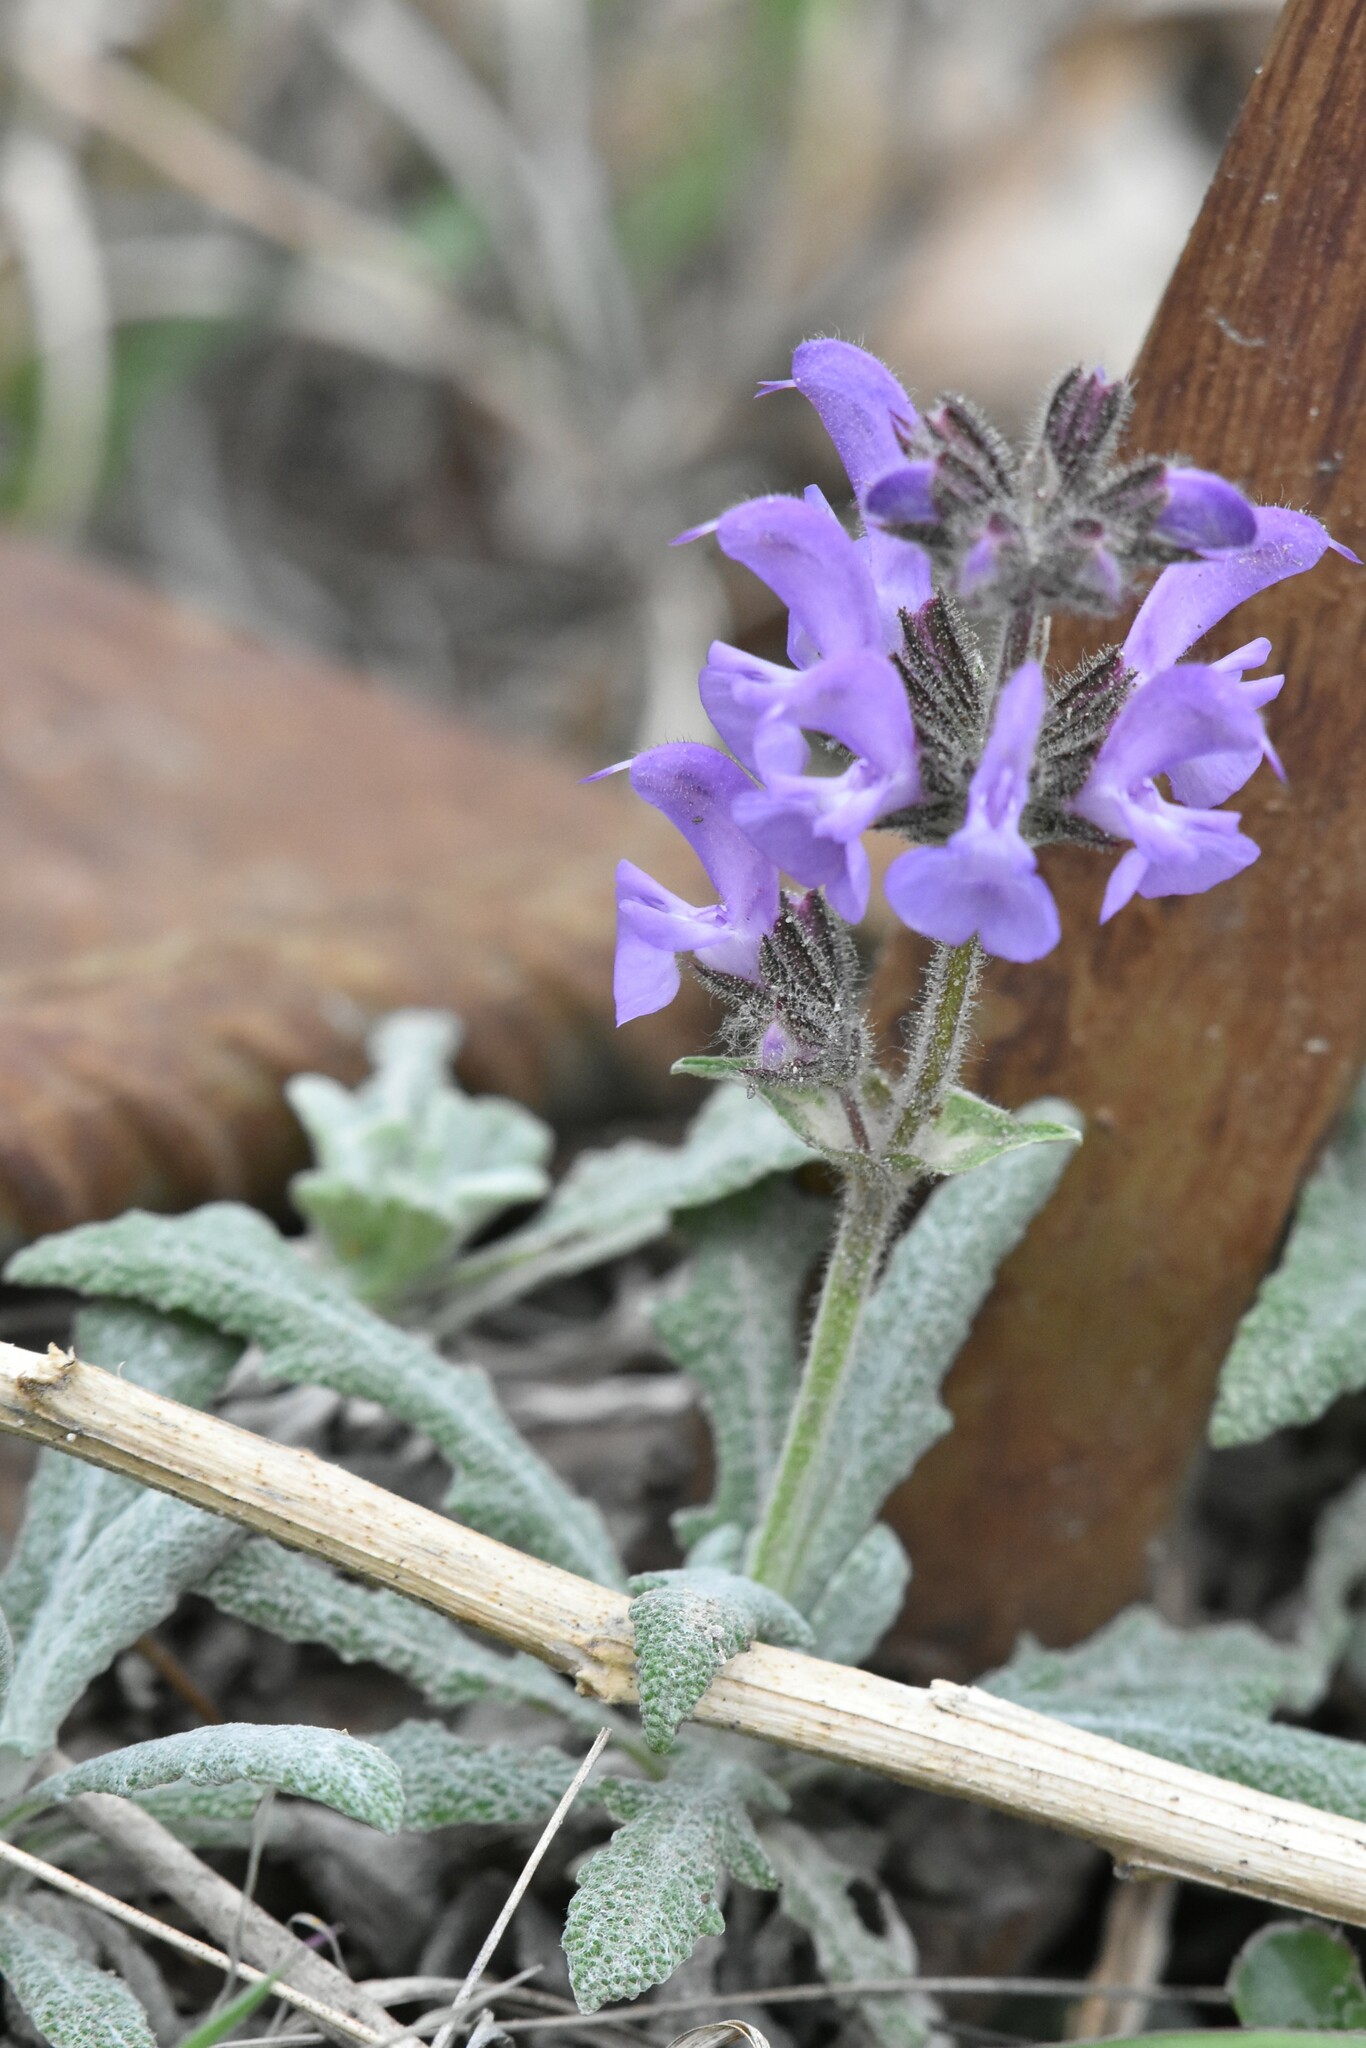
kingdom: Plantae
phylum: Tracheophyta
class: Magnoliopsida
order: Lamiales
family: Lamiaceae
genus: Salvia
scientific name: Salvia canescens
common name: Hoary salvia
